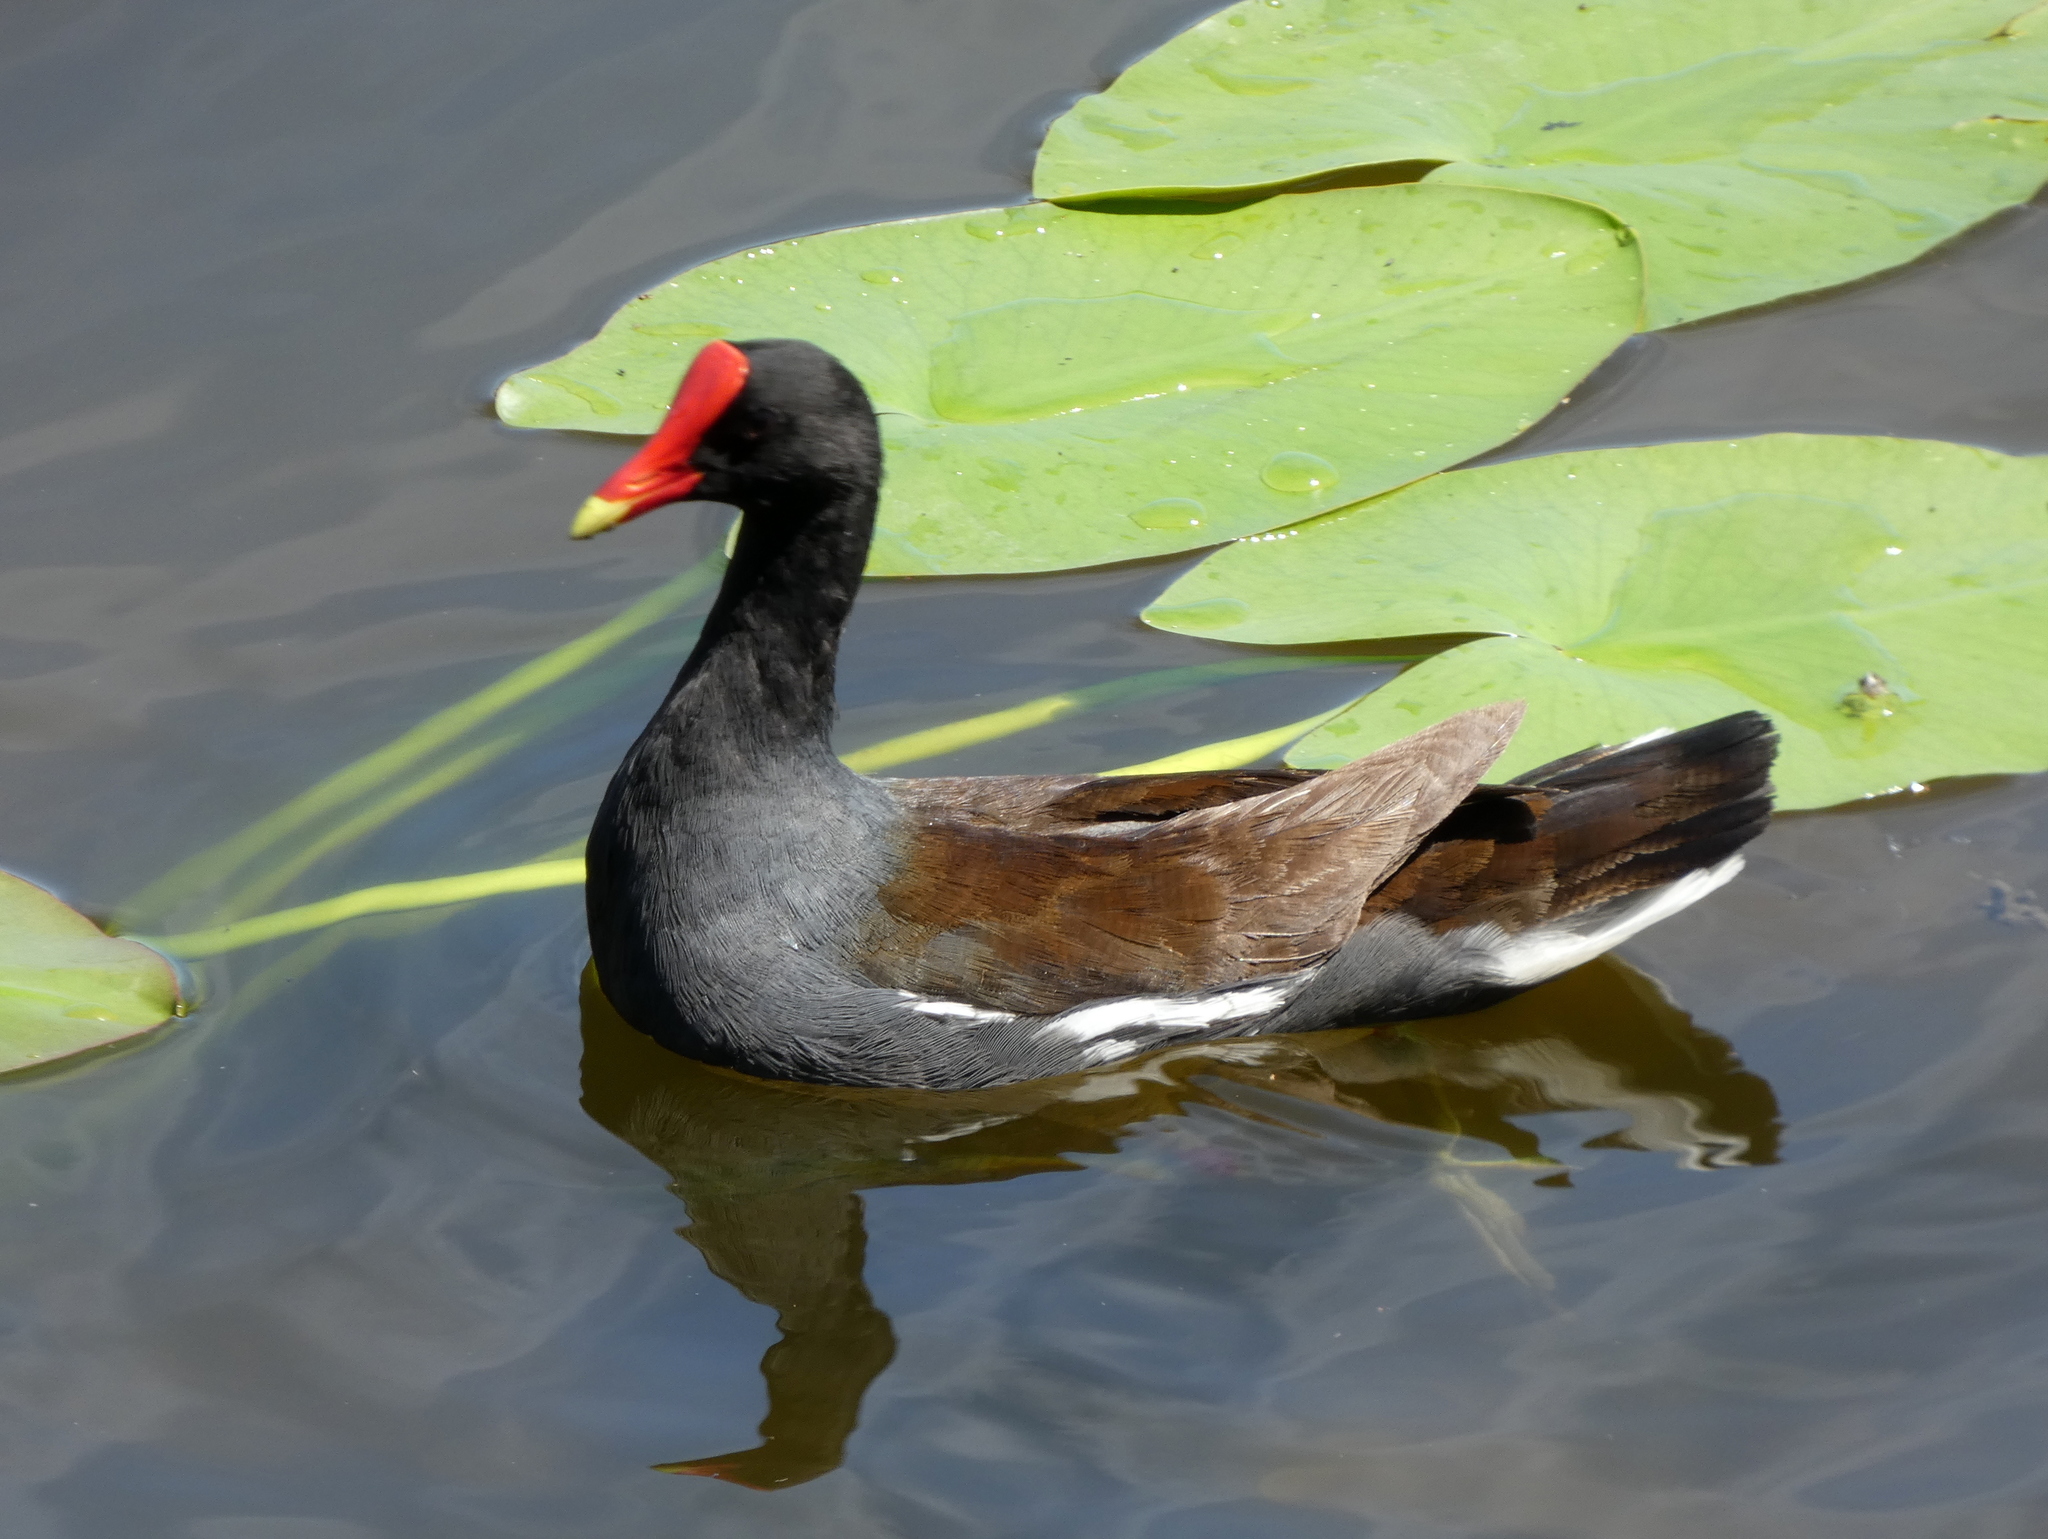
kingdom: Animalia
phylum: Chordata
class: Aves
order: Gruiformes
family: Rallidae
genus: Gallinula
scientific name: Gallinula chloropus
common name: Common moorhen
